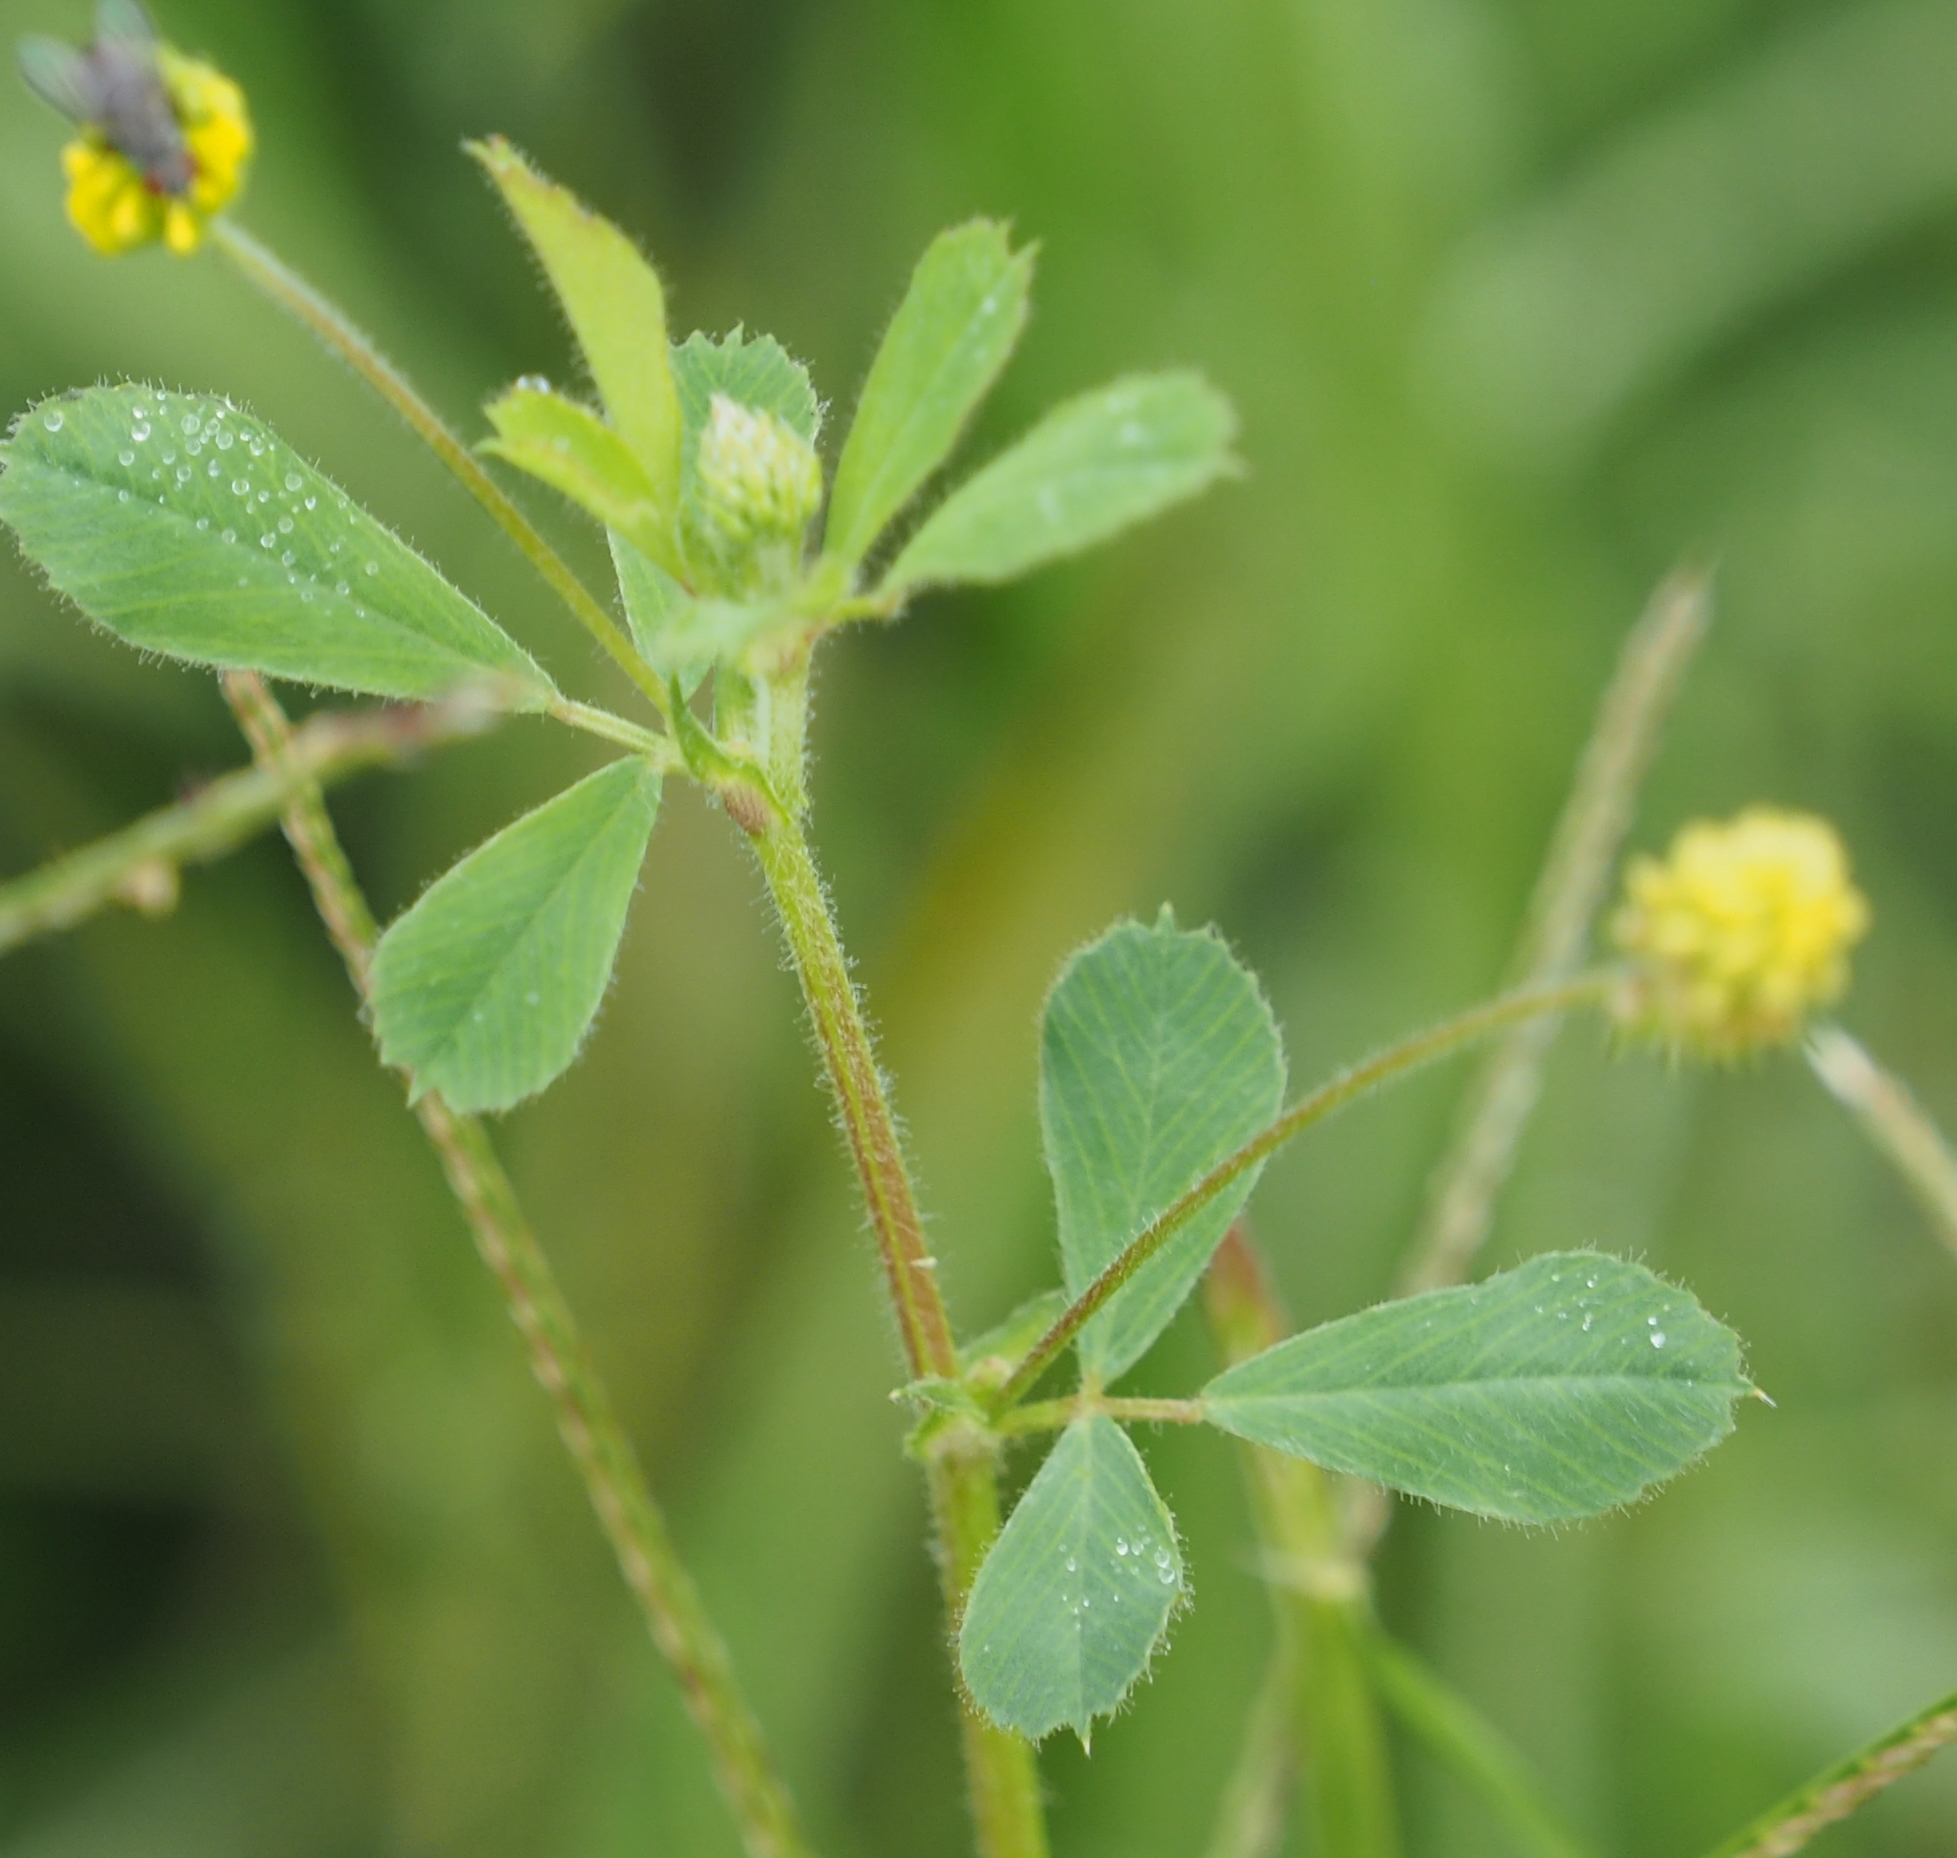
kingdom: Plantae
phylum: Tracheophyta
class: Magnoliopsida
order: Fabales
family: Fabaceae
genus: Medicago
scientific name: Medicago lupulina
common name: Black medick
